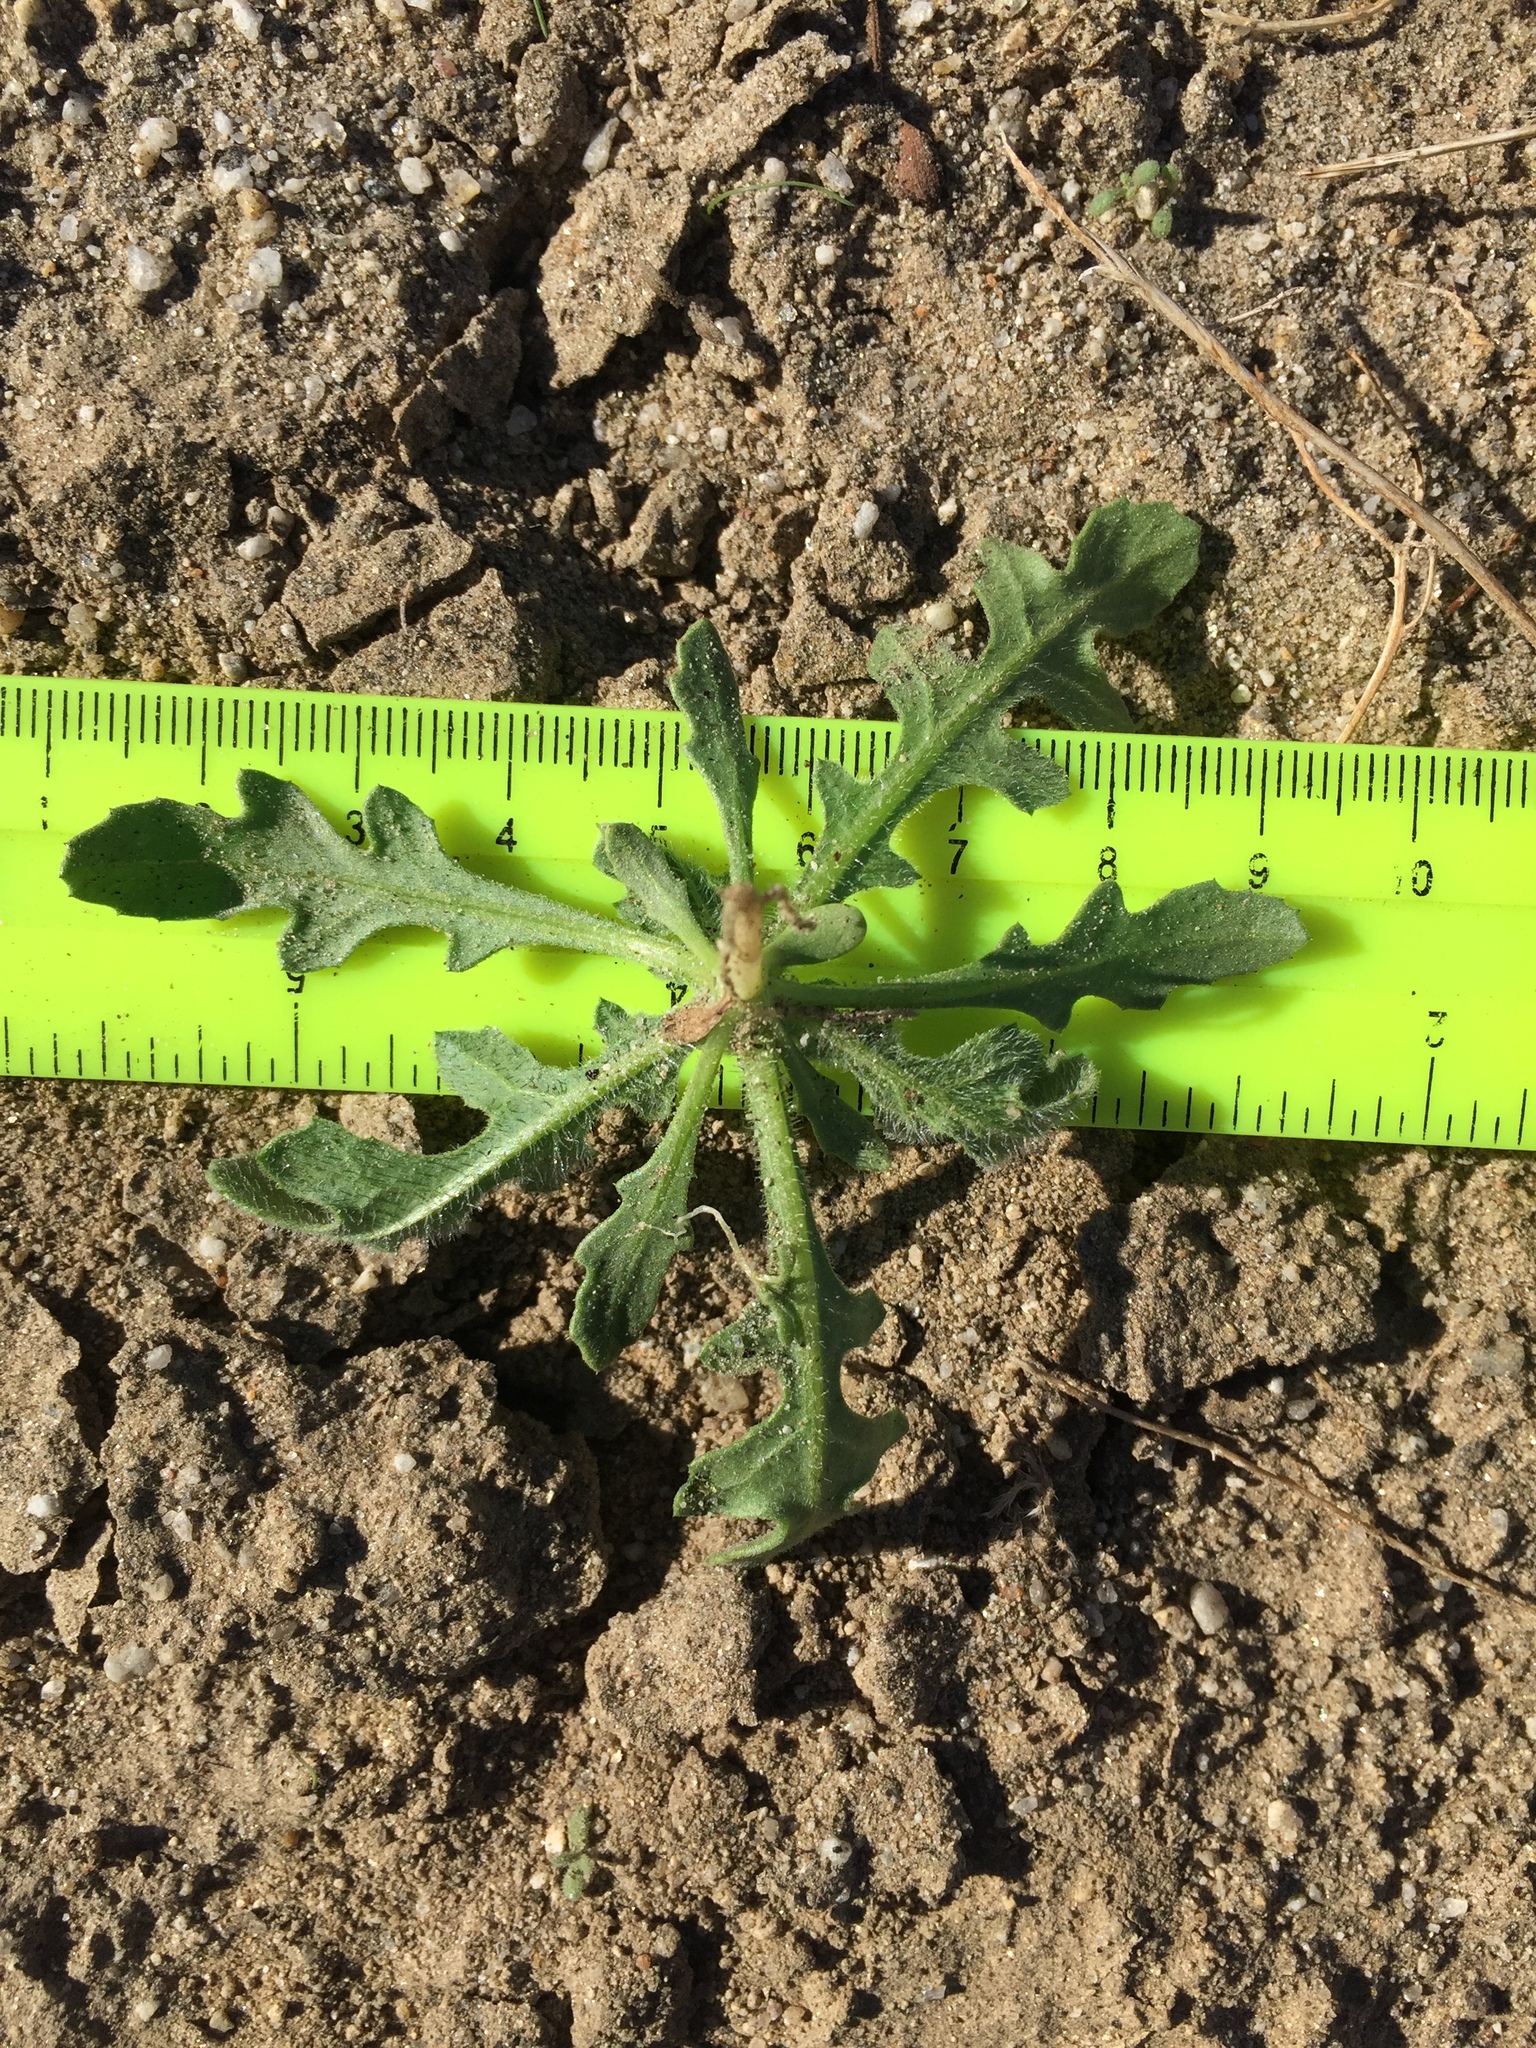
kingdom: Plantae
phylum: Tracheophyta
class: Magnoliopsida
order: Asterales
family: Asteraceae
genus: Volutaria
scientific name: Volutaria tubuliflora
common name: Desert knapweed
